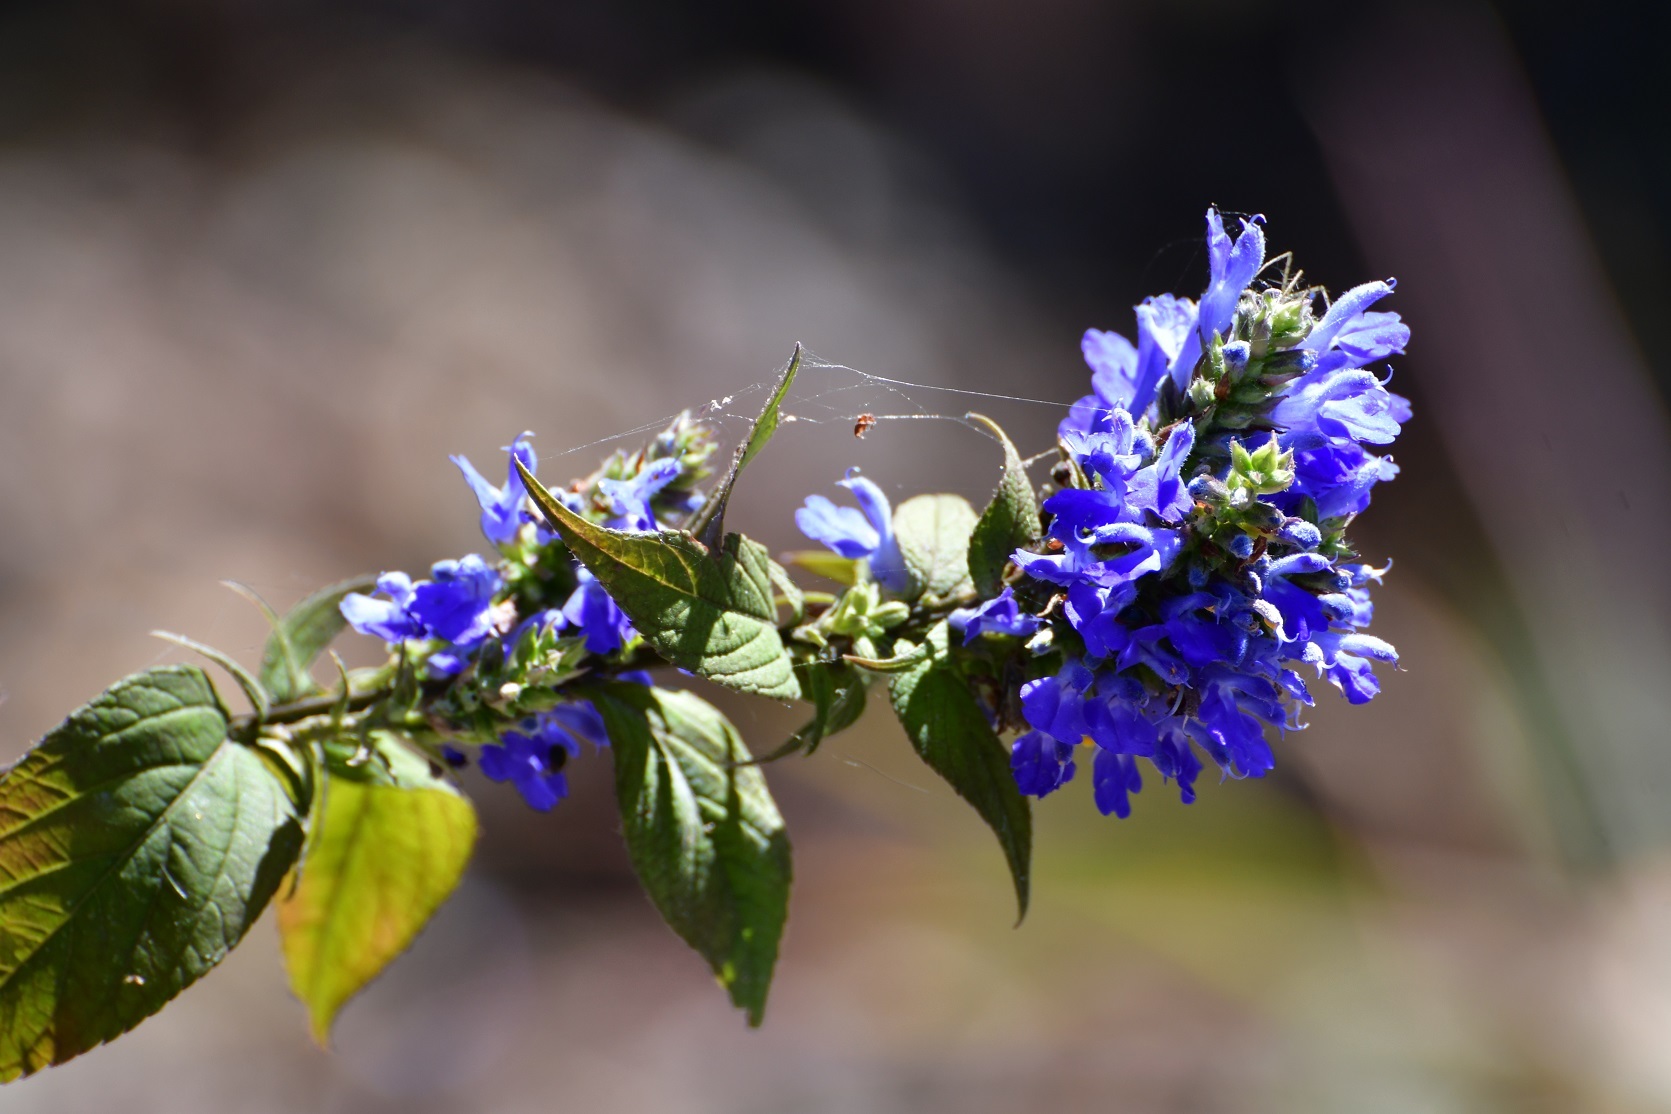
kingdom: Plantae
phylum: Tracheophyta
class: Magnoliopsida
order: Lamiales
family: Lamiaceae
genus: Salvia
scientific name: Salvia connivens
